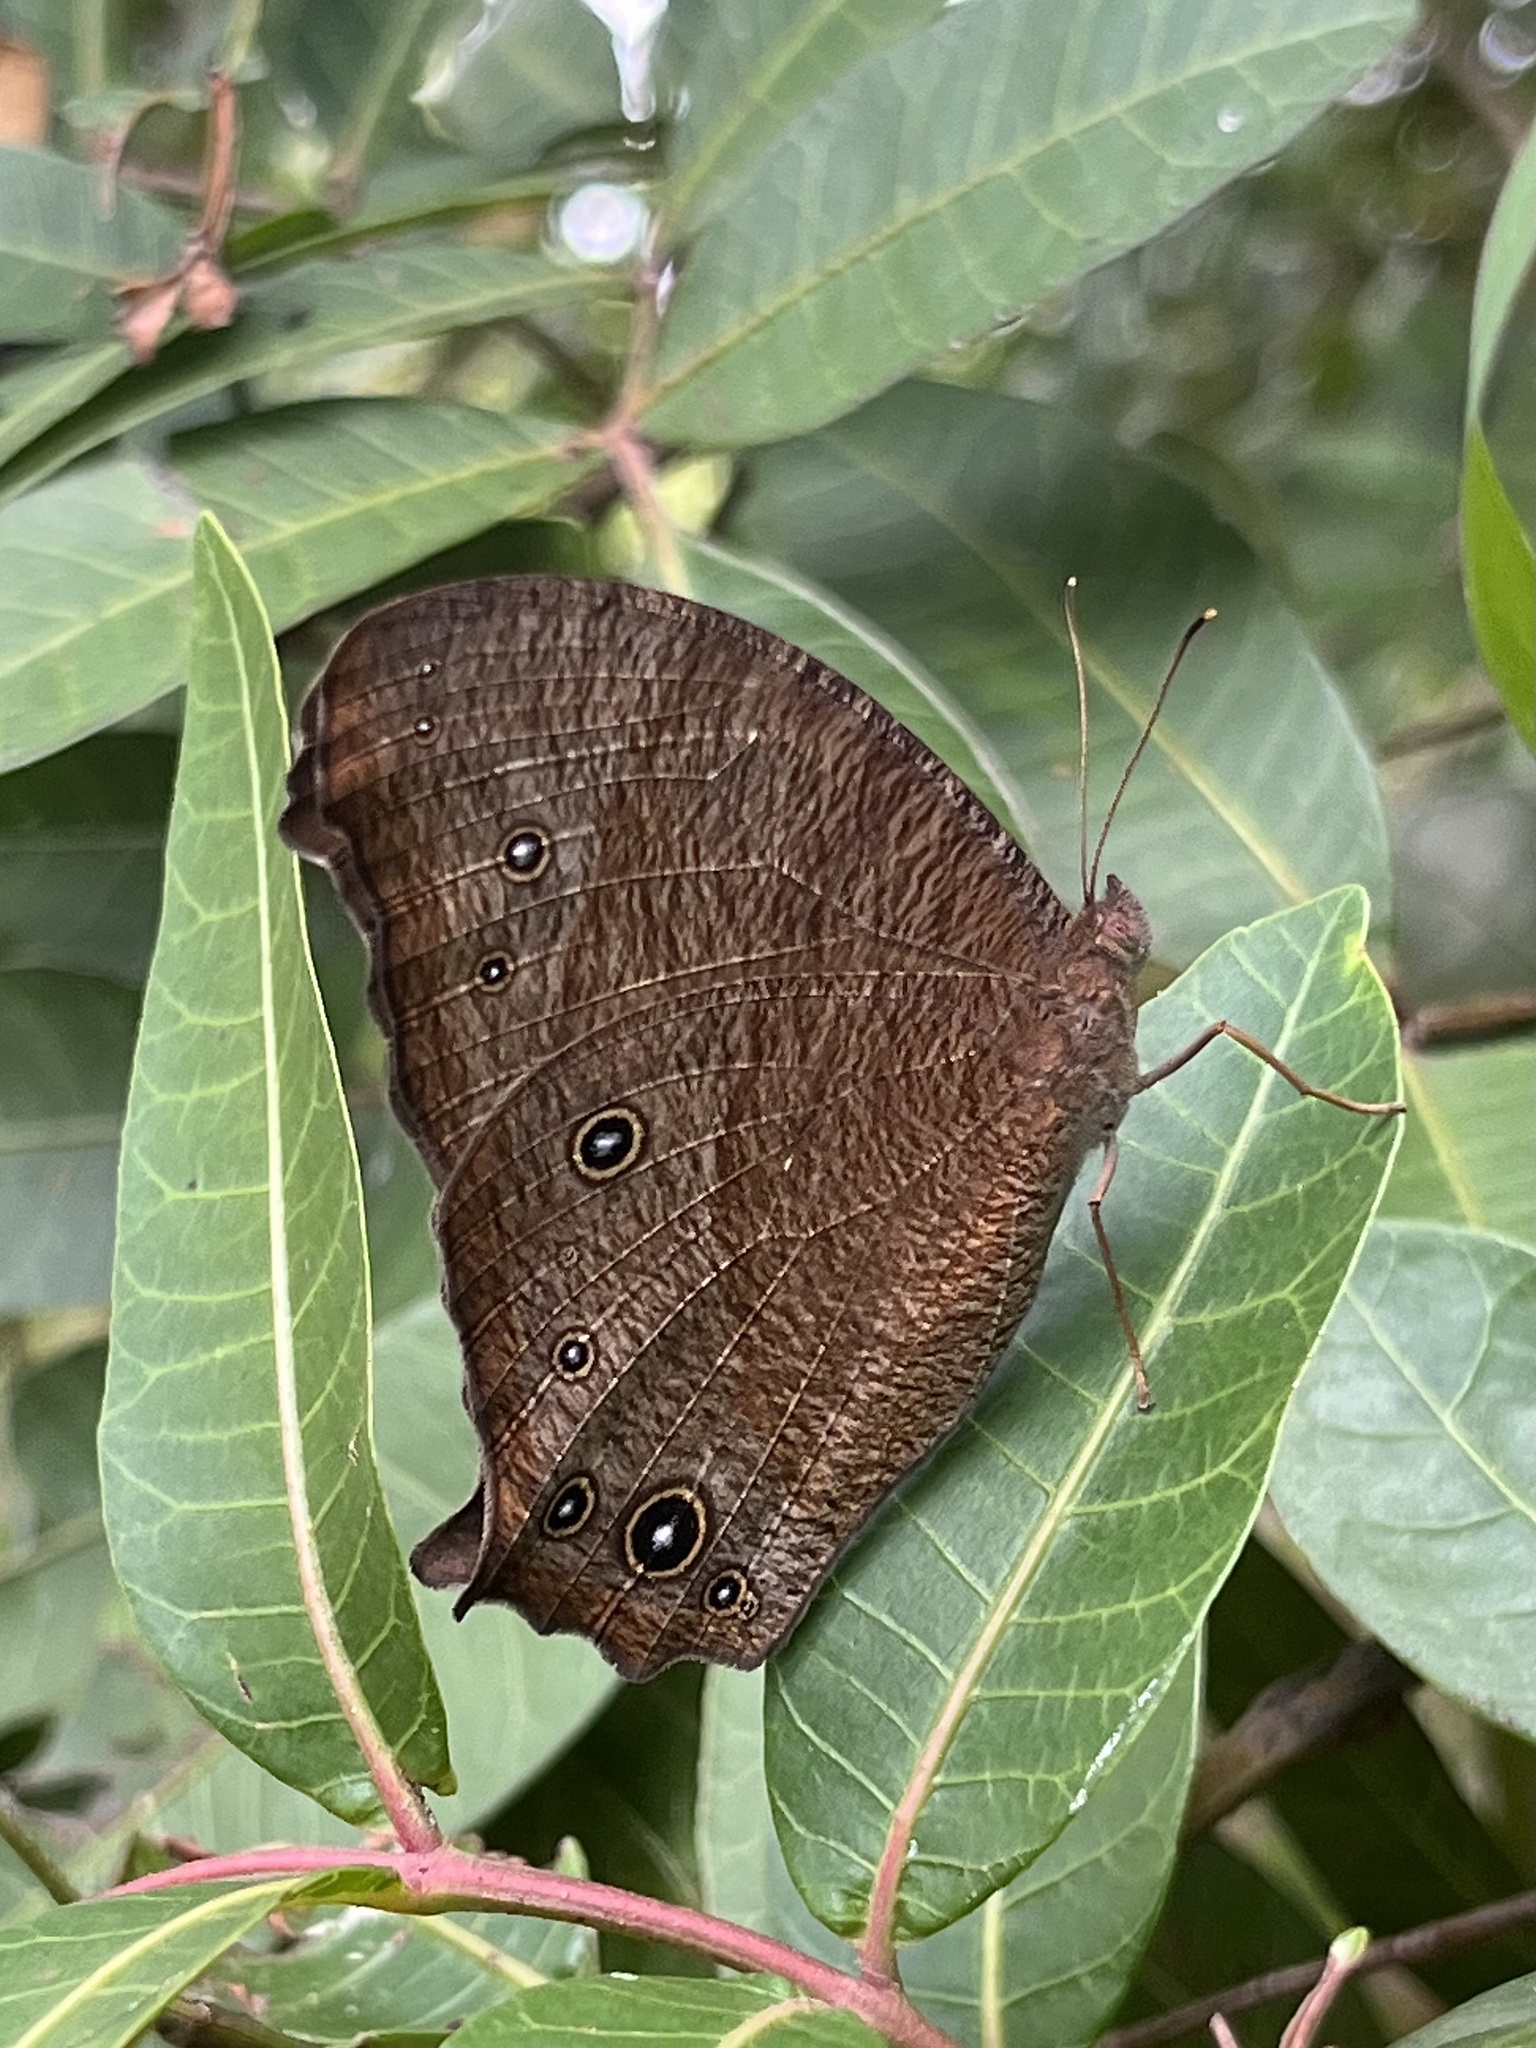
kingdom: Animalia
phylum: Arthropoda
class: Insecta
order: Lepidoptera
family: Nymphalidae
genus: Melanitis
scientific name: Melanitis leda
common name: Twilight brown
